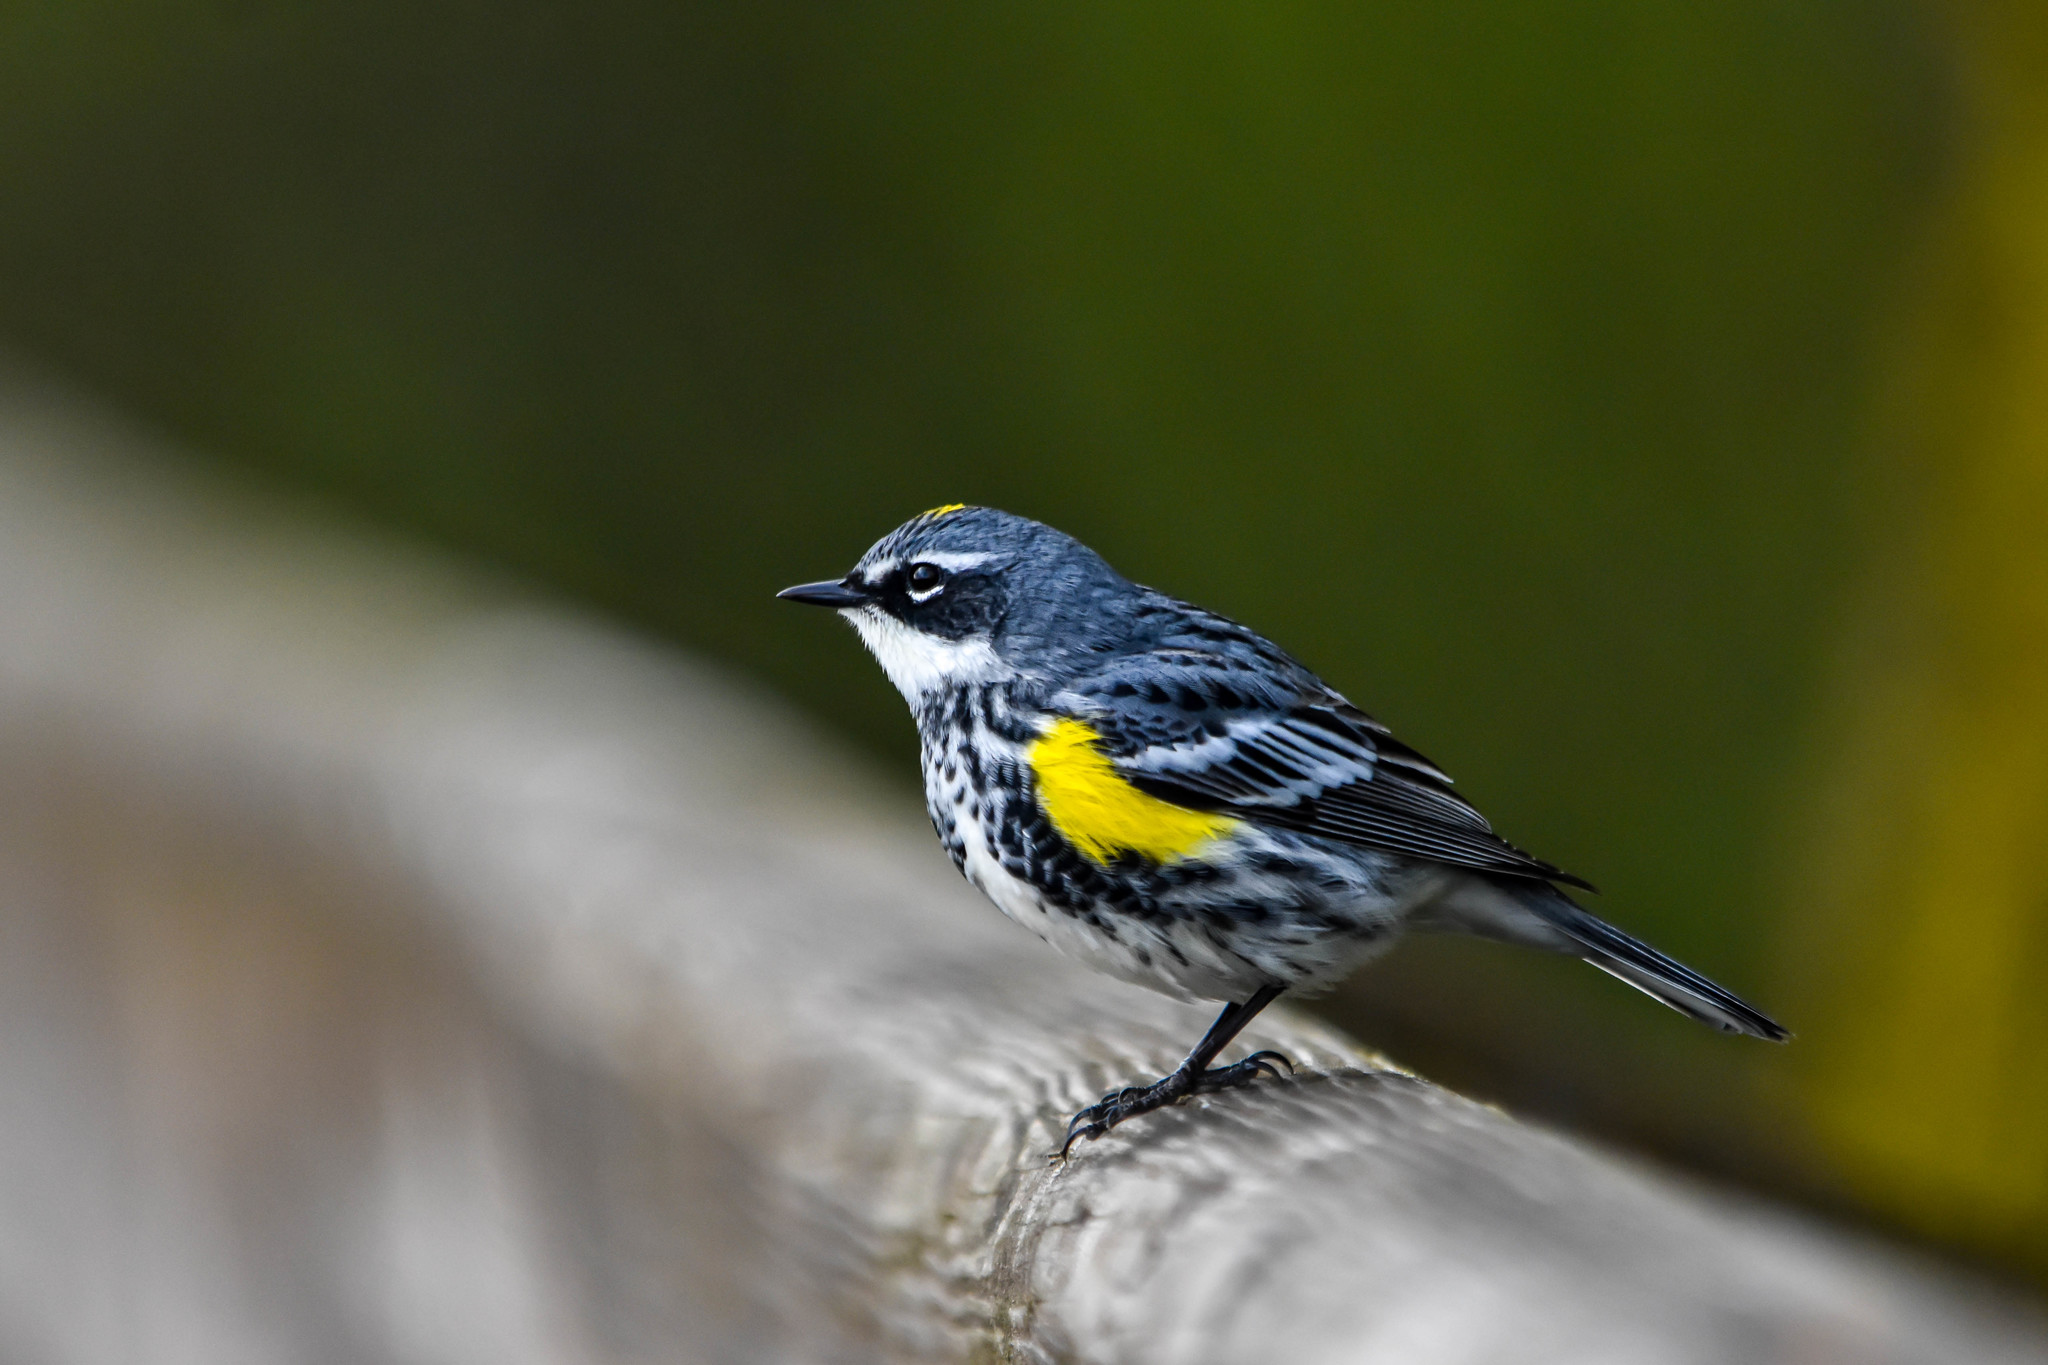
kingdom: Animalia
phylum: Chordata
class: Aves
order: Passeriformes
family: Parulidae
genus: Setophaga
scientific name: Setophaga coronata
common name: Myrtle warbler
